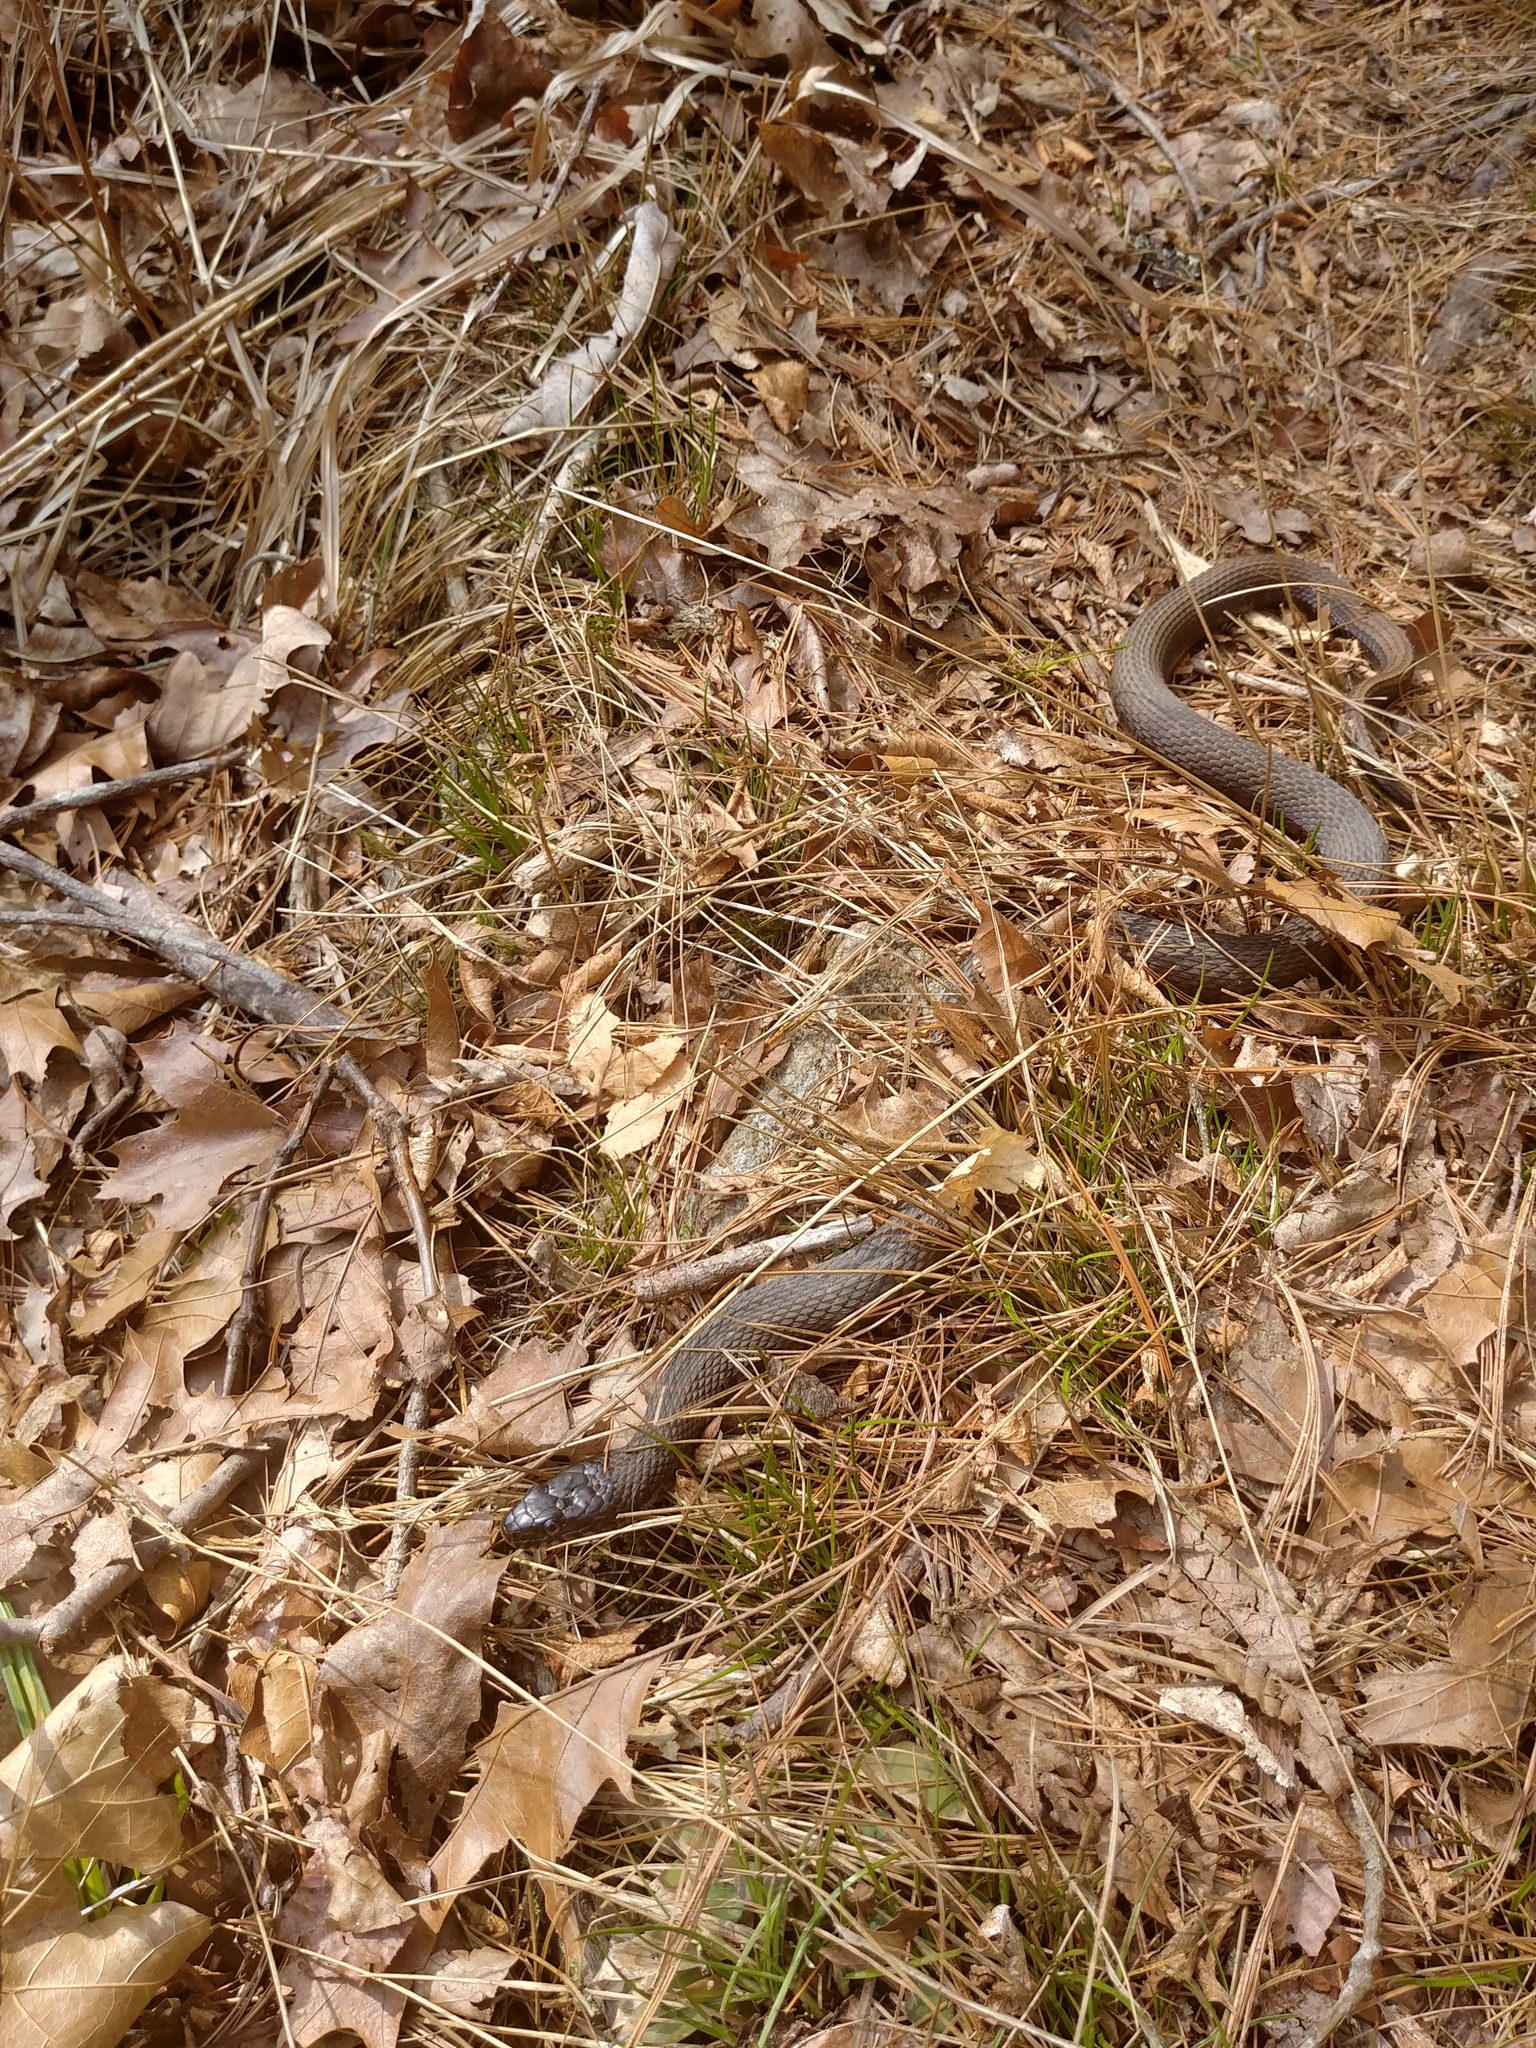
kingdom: Animalia
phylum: Chordata
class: Squamata
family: Colubridae
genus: Nerodia
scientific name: Nerodia sipedon
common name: Northern water snake
